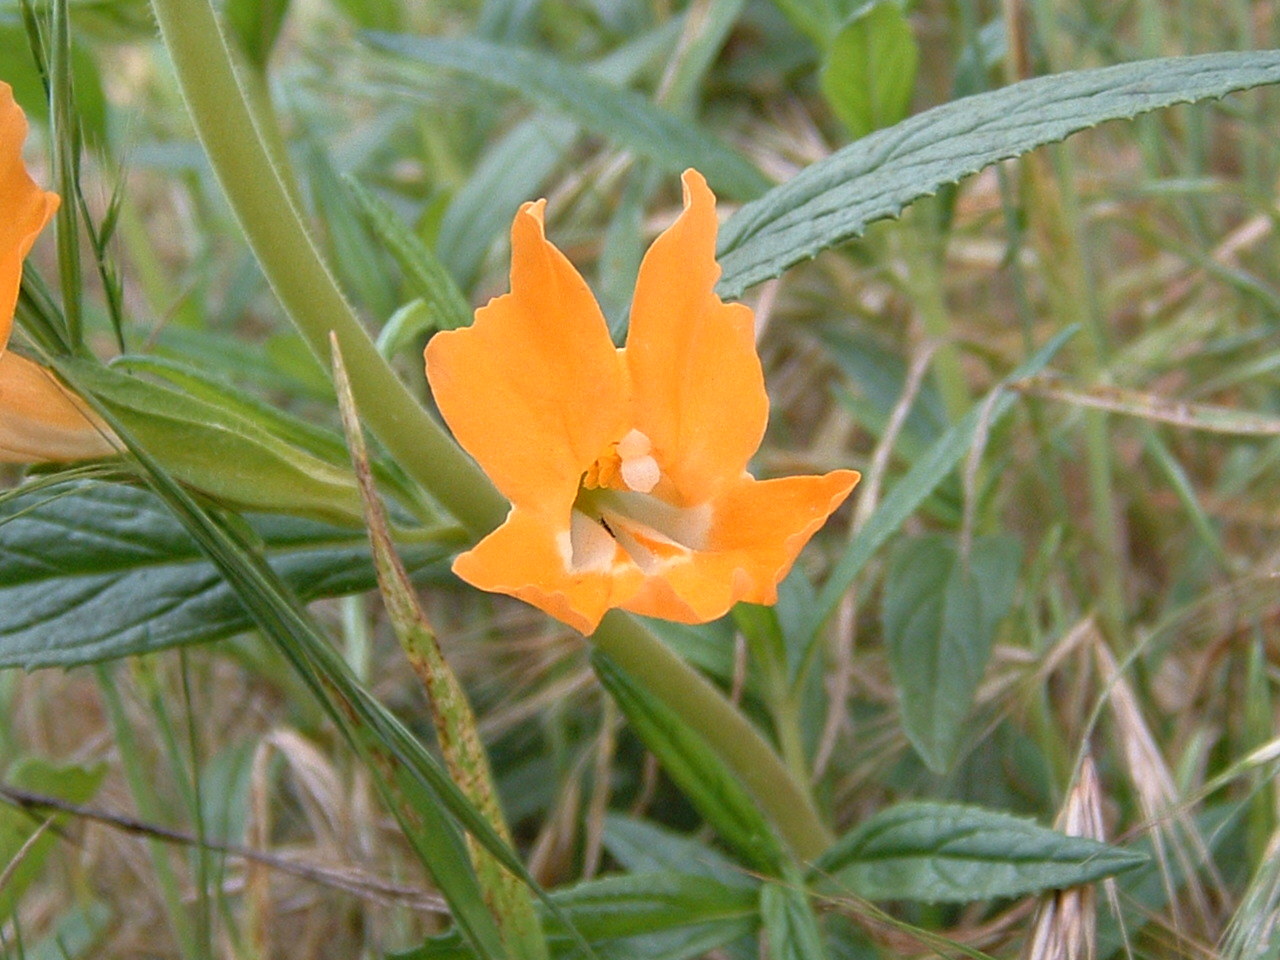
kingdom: Plantae
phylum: Tracheophyta
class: Magnoliopsida
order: Lamiales
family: Phrymaceae
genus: Diplacus
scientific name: Diplacus longiflorus
